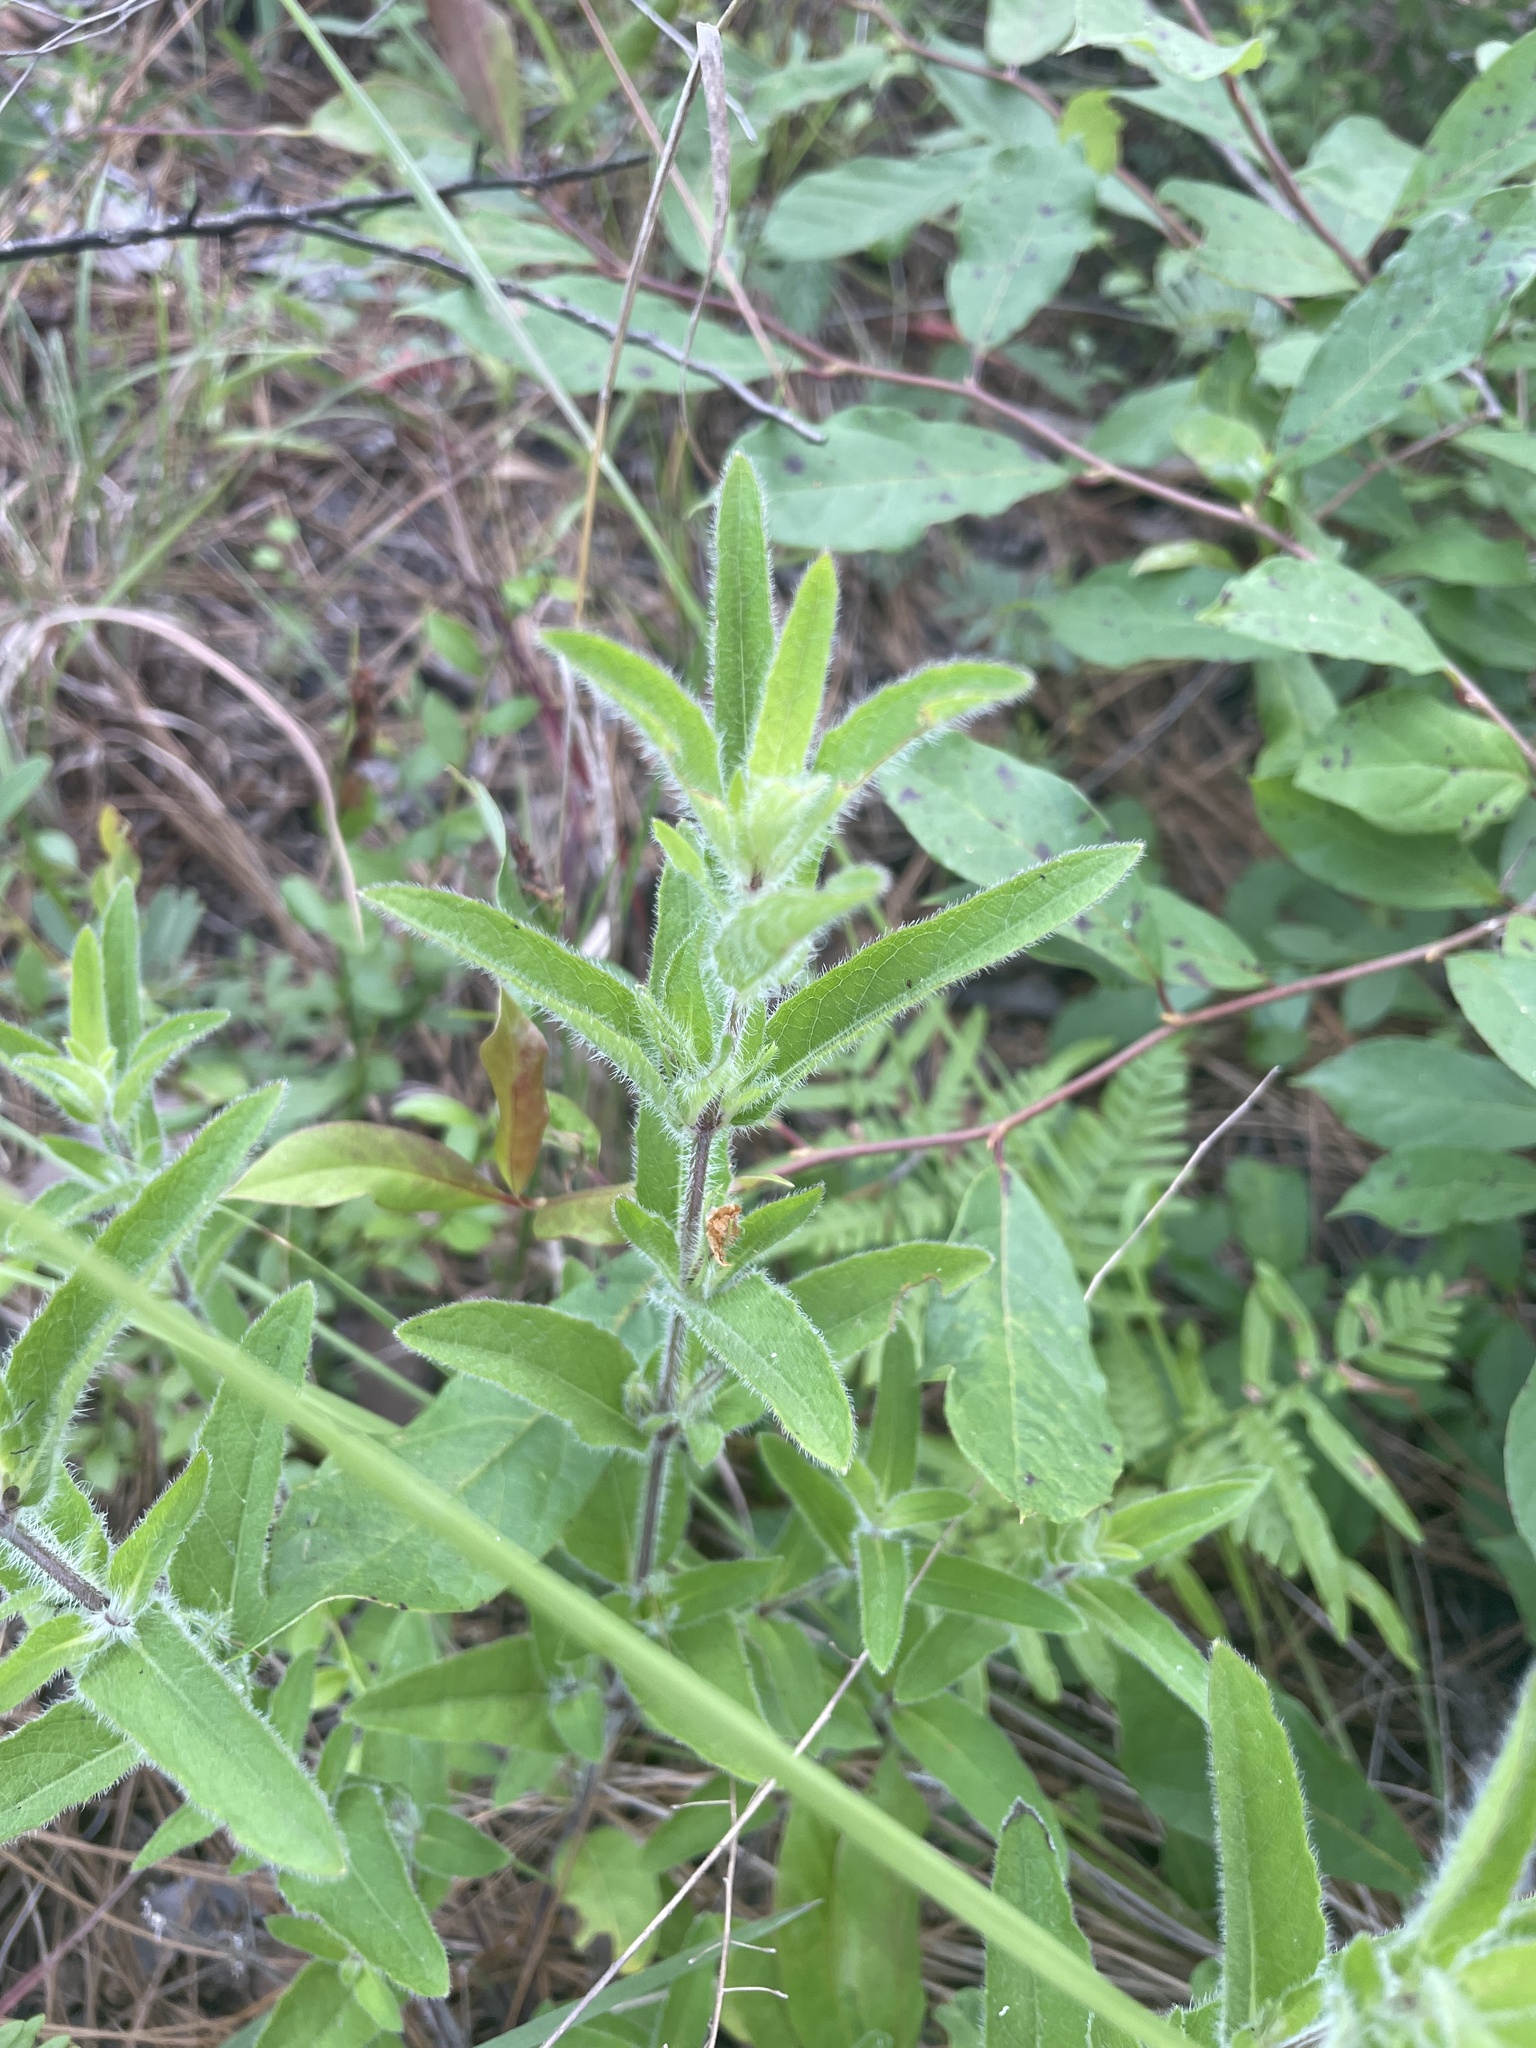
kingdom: Plantae
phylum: Tracheophyta
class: Magnoliopsida
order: Lamiales
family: Acanthaceae
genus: Ruellia
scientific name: Ruellia humilis
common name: Fringe-leaf ruellia
